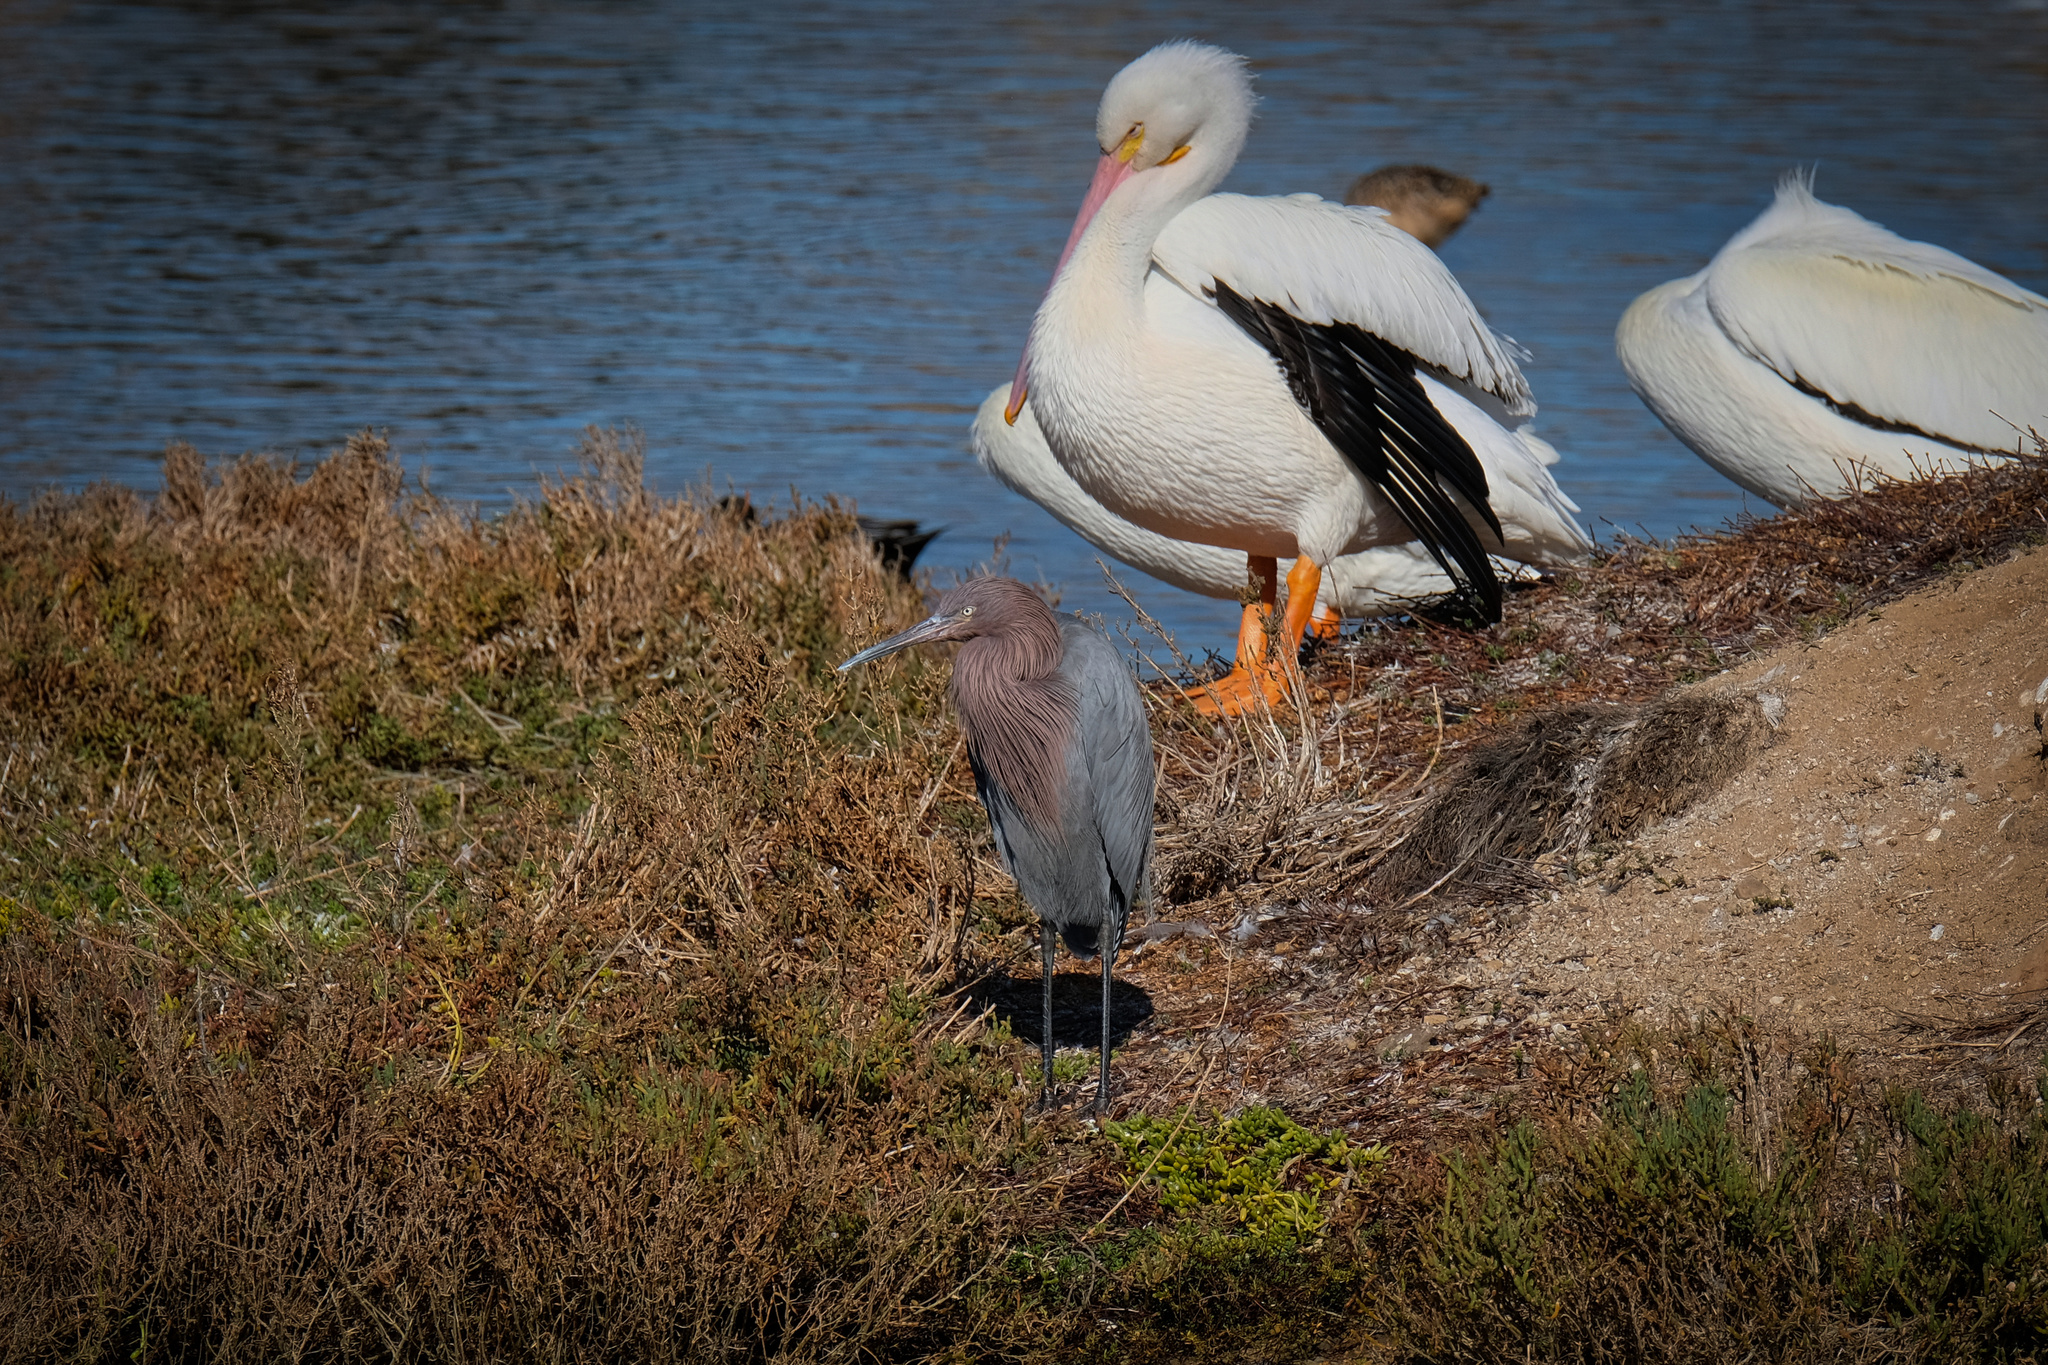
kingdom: Animalia
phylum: Chordata
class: Aves
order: Pelecaniformes
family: Ardeidae
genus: Egretta
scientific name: Egretta rufescens
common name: Reddish egret
